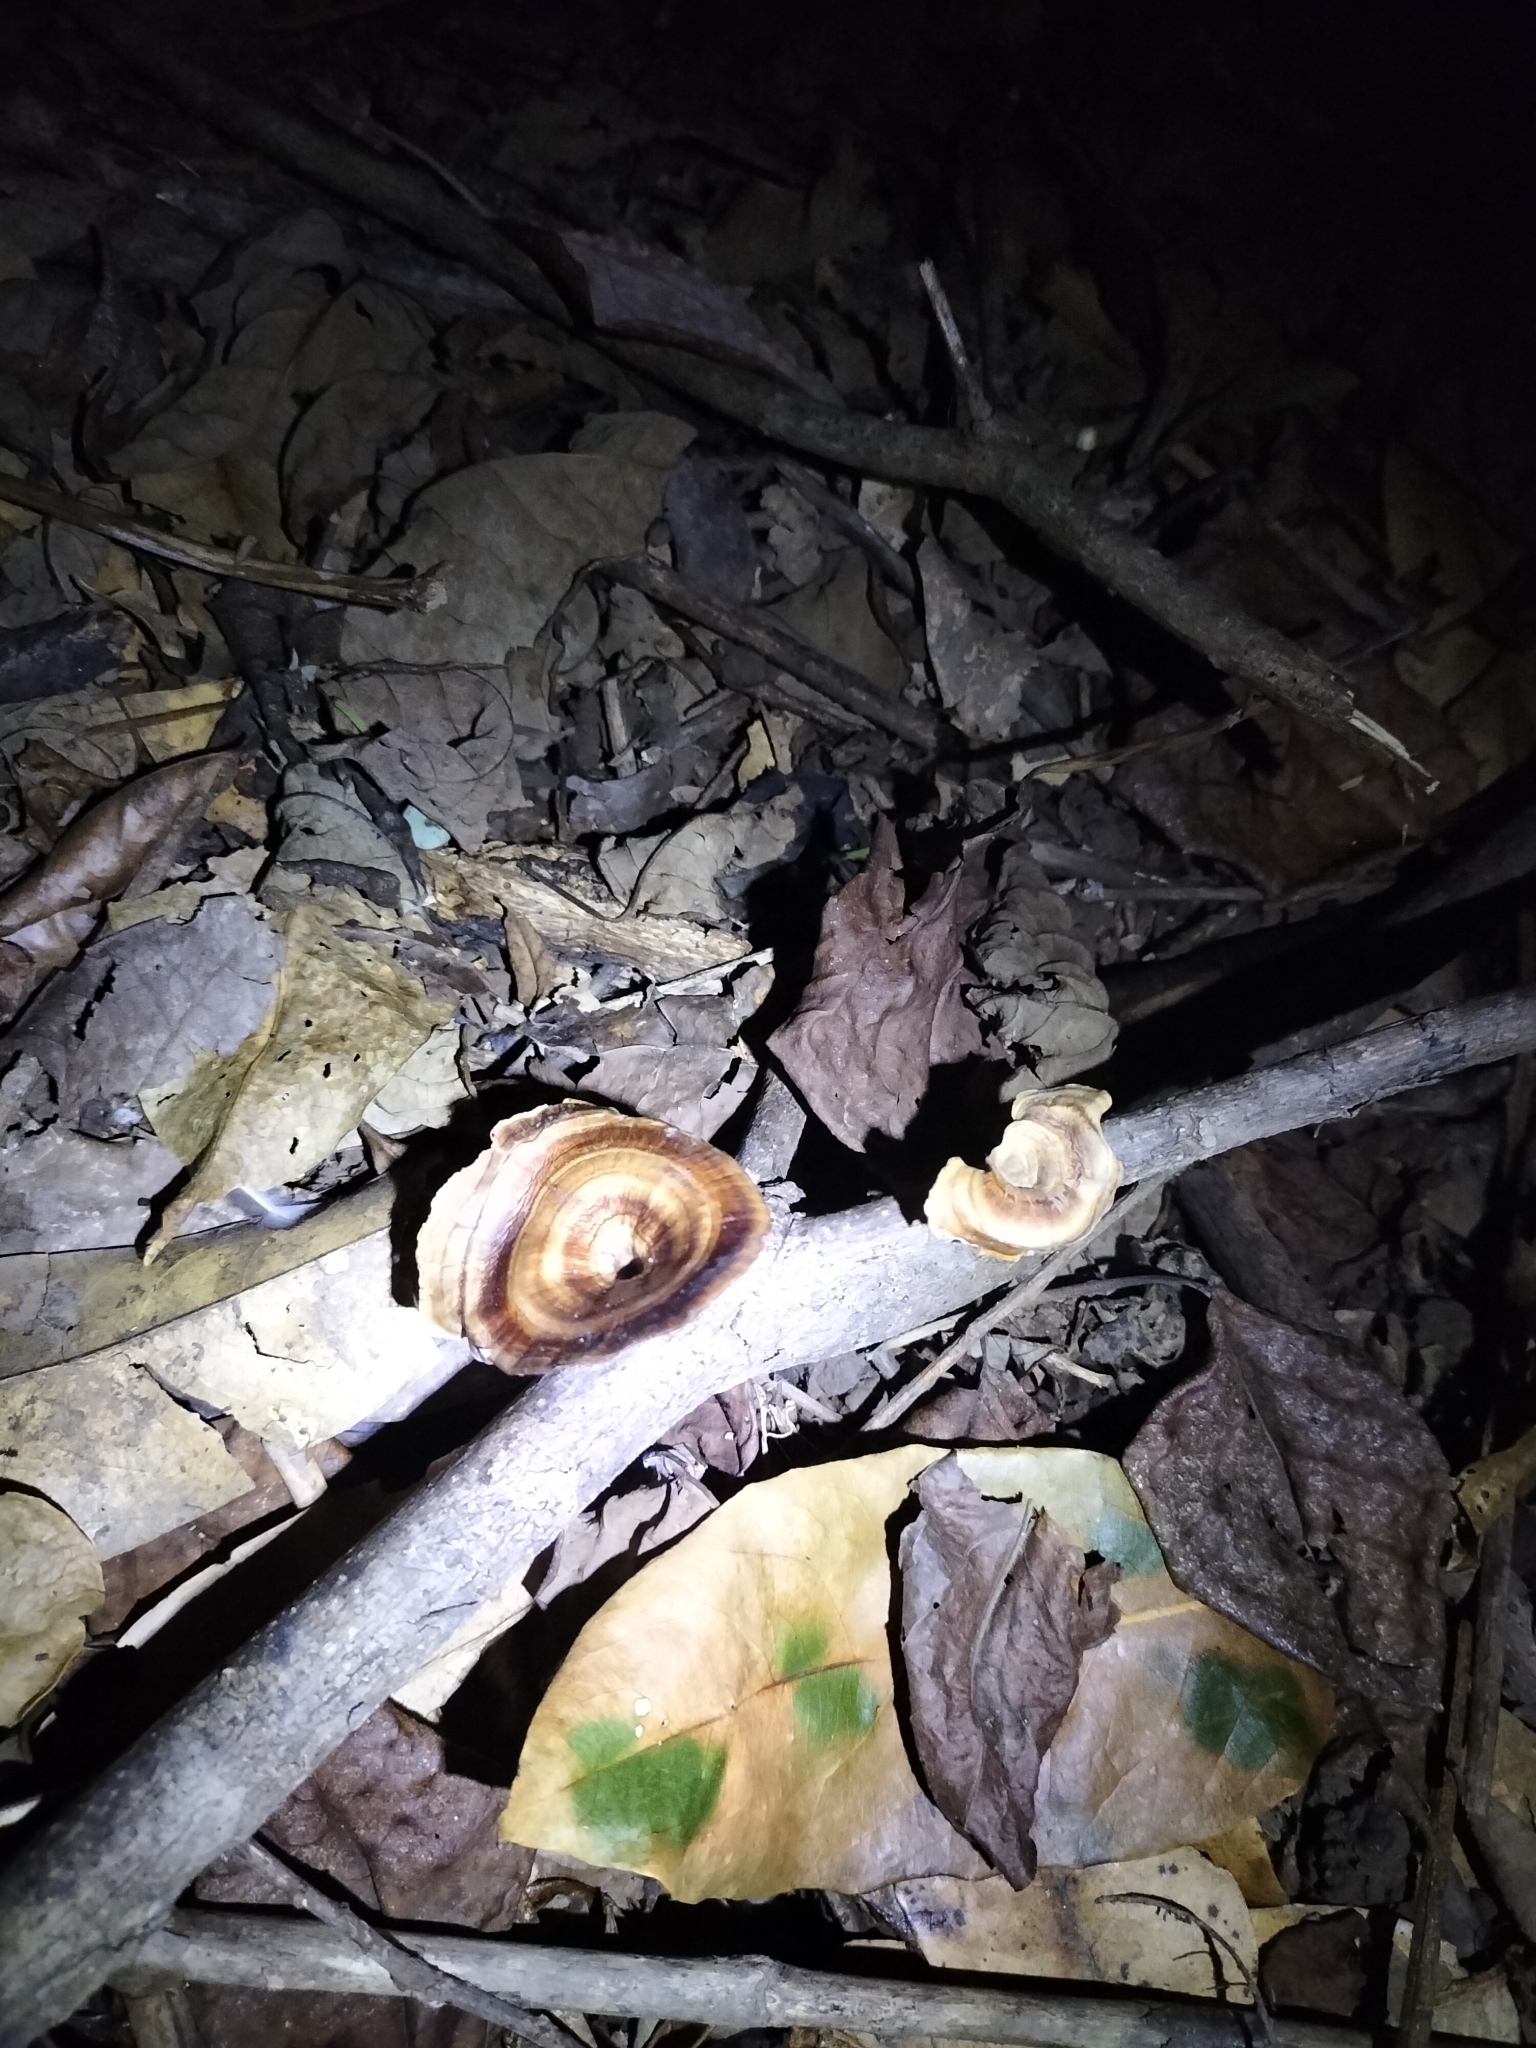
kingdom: Fungi
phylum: Basidiomycota
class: Agaricomycetes
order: Polyporales
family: Polyporaceae
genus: Microporus
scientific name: Microporus xanthopus
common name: Yellow-stemmed micropore
